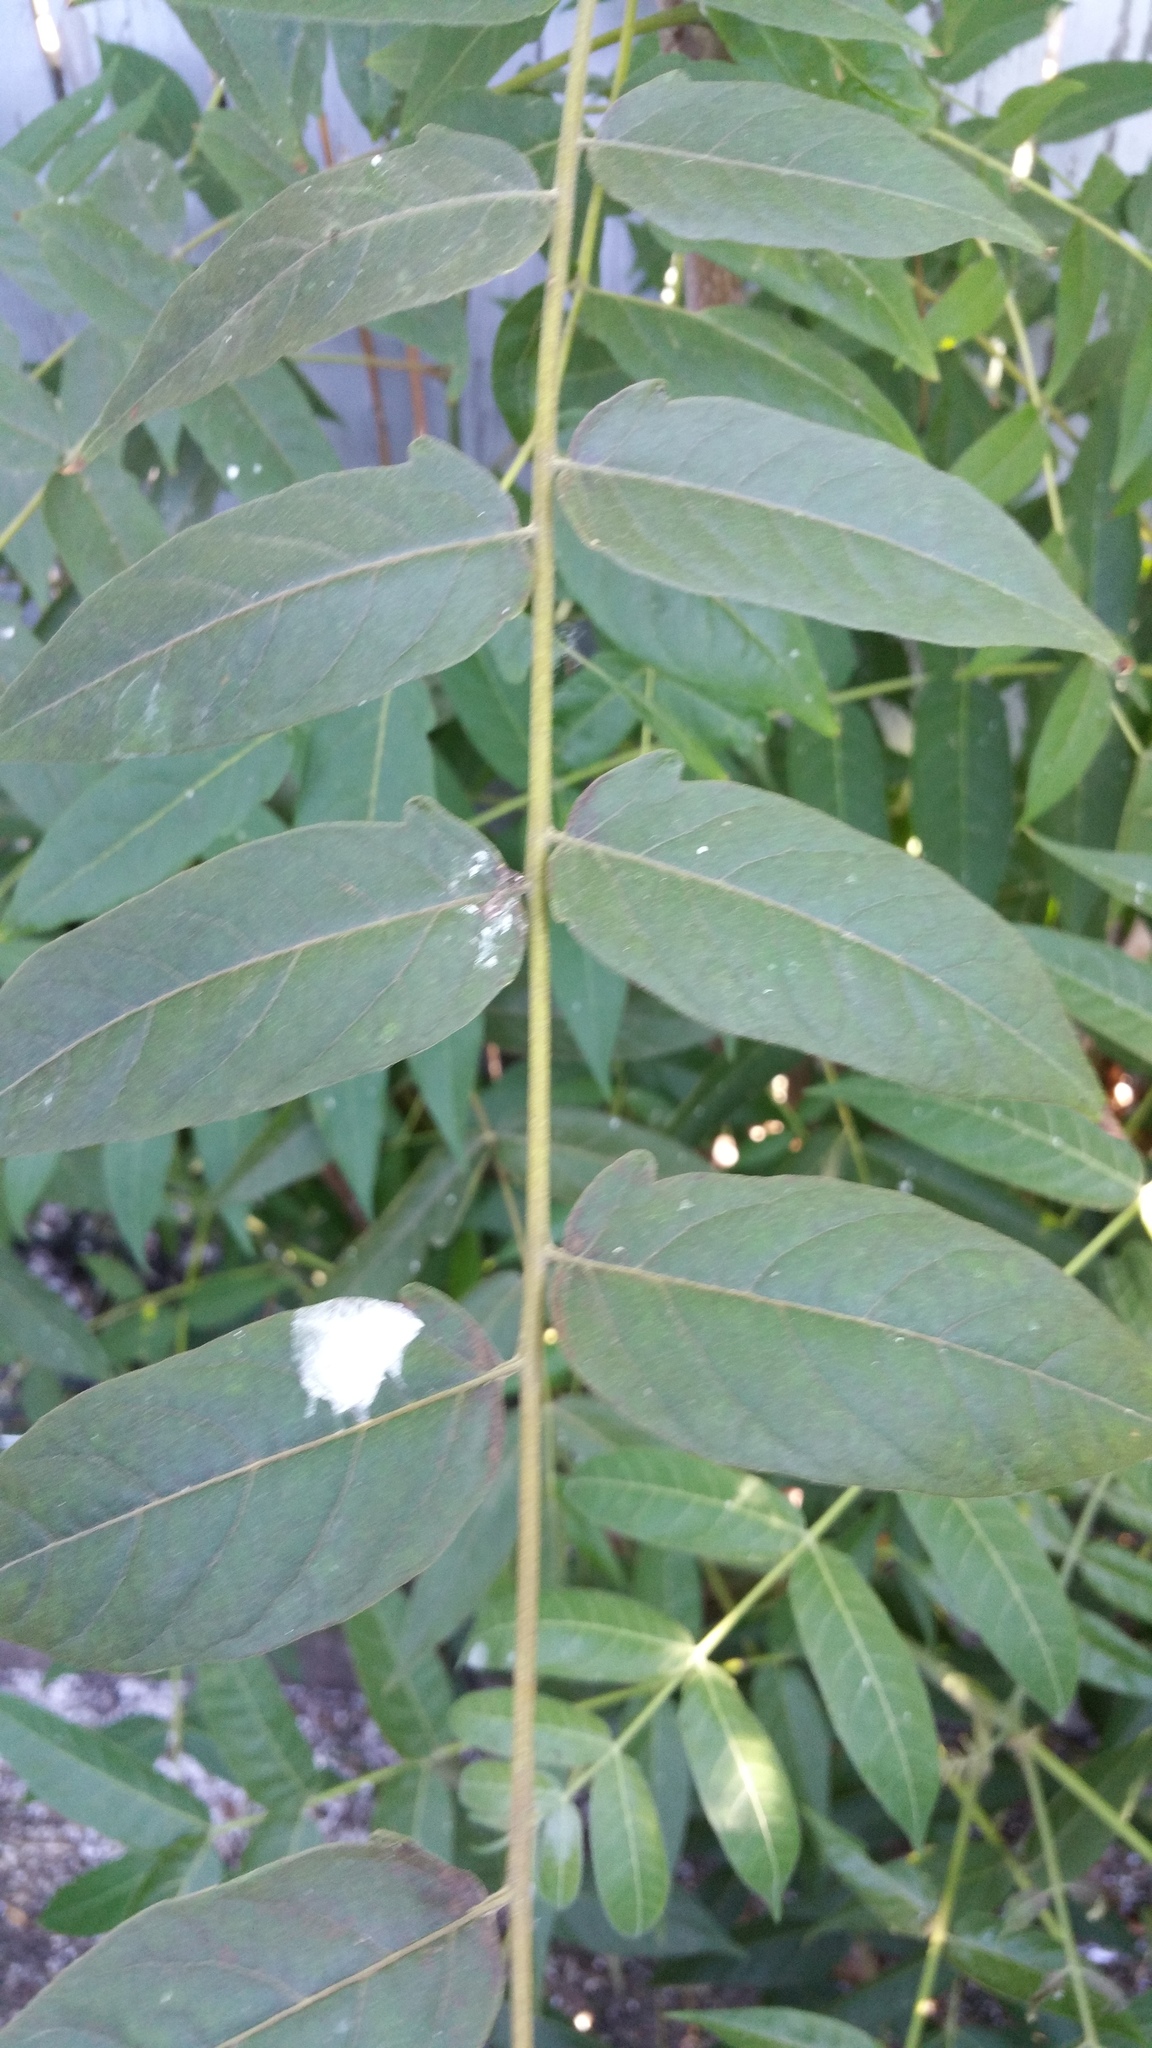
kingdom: Plantae
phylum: Tracheophyta
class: Magnoliopsida
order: Sapindales
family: Simaroubaceae
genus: Ailanthus
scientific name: Ailanthus altissima
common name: Tree-of-heaven
